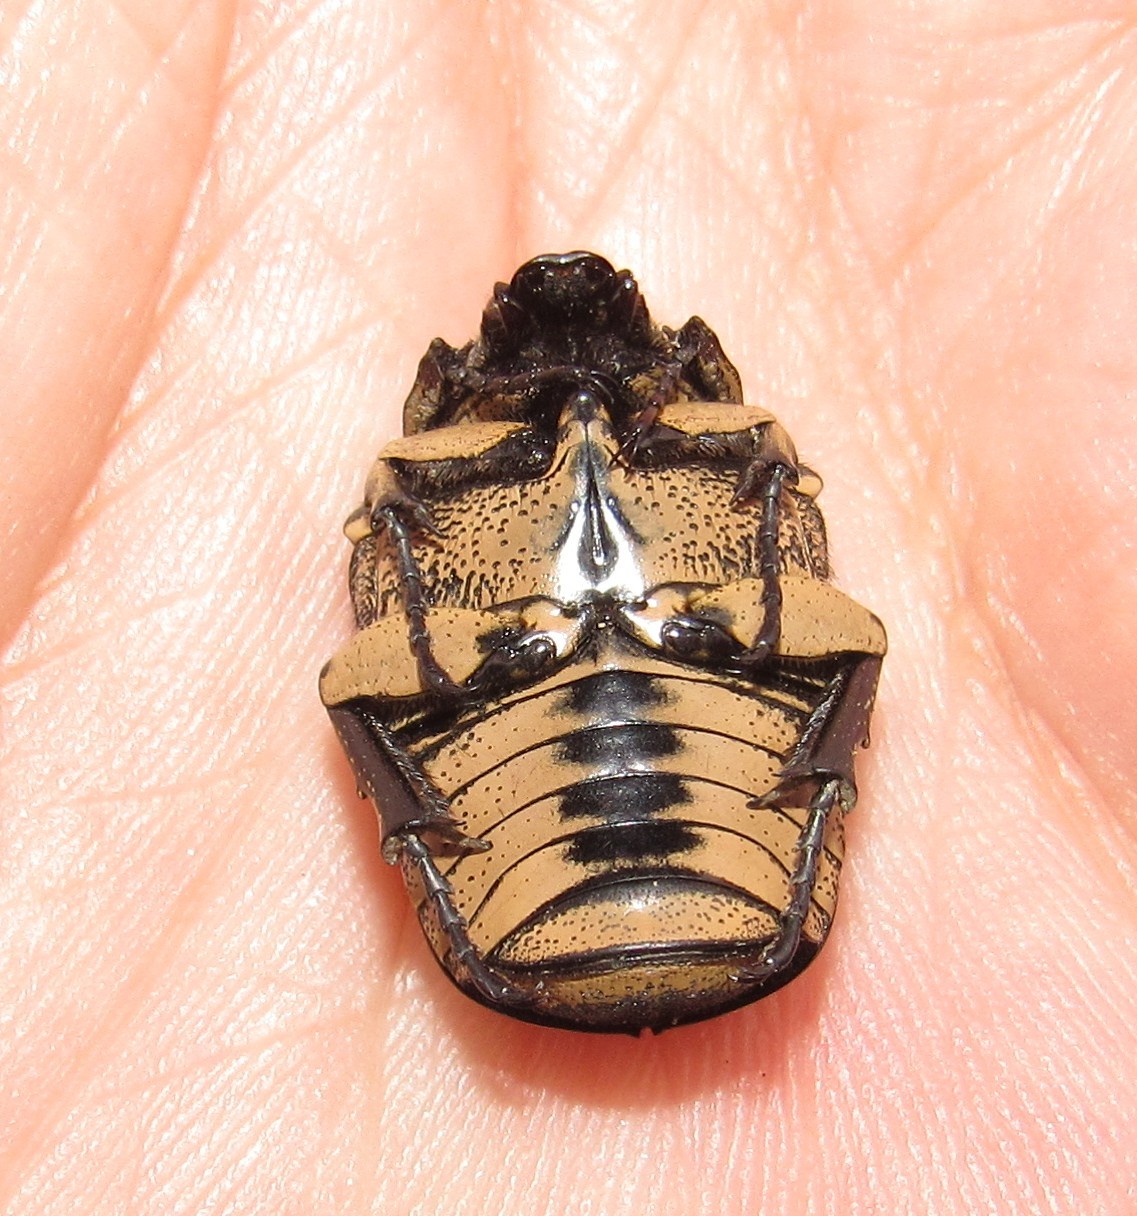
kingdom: Animalia
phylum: Arthropoda
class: Insecta
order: Coleoptera
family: Scarabaeidae
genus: Gymnetis
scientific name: Gymnetis strigosa
